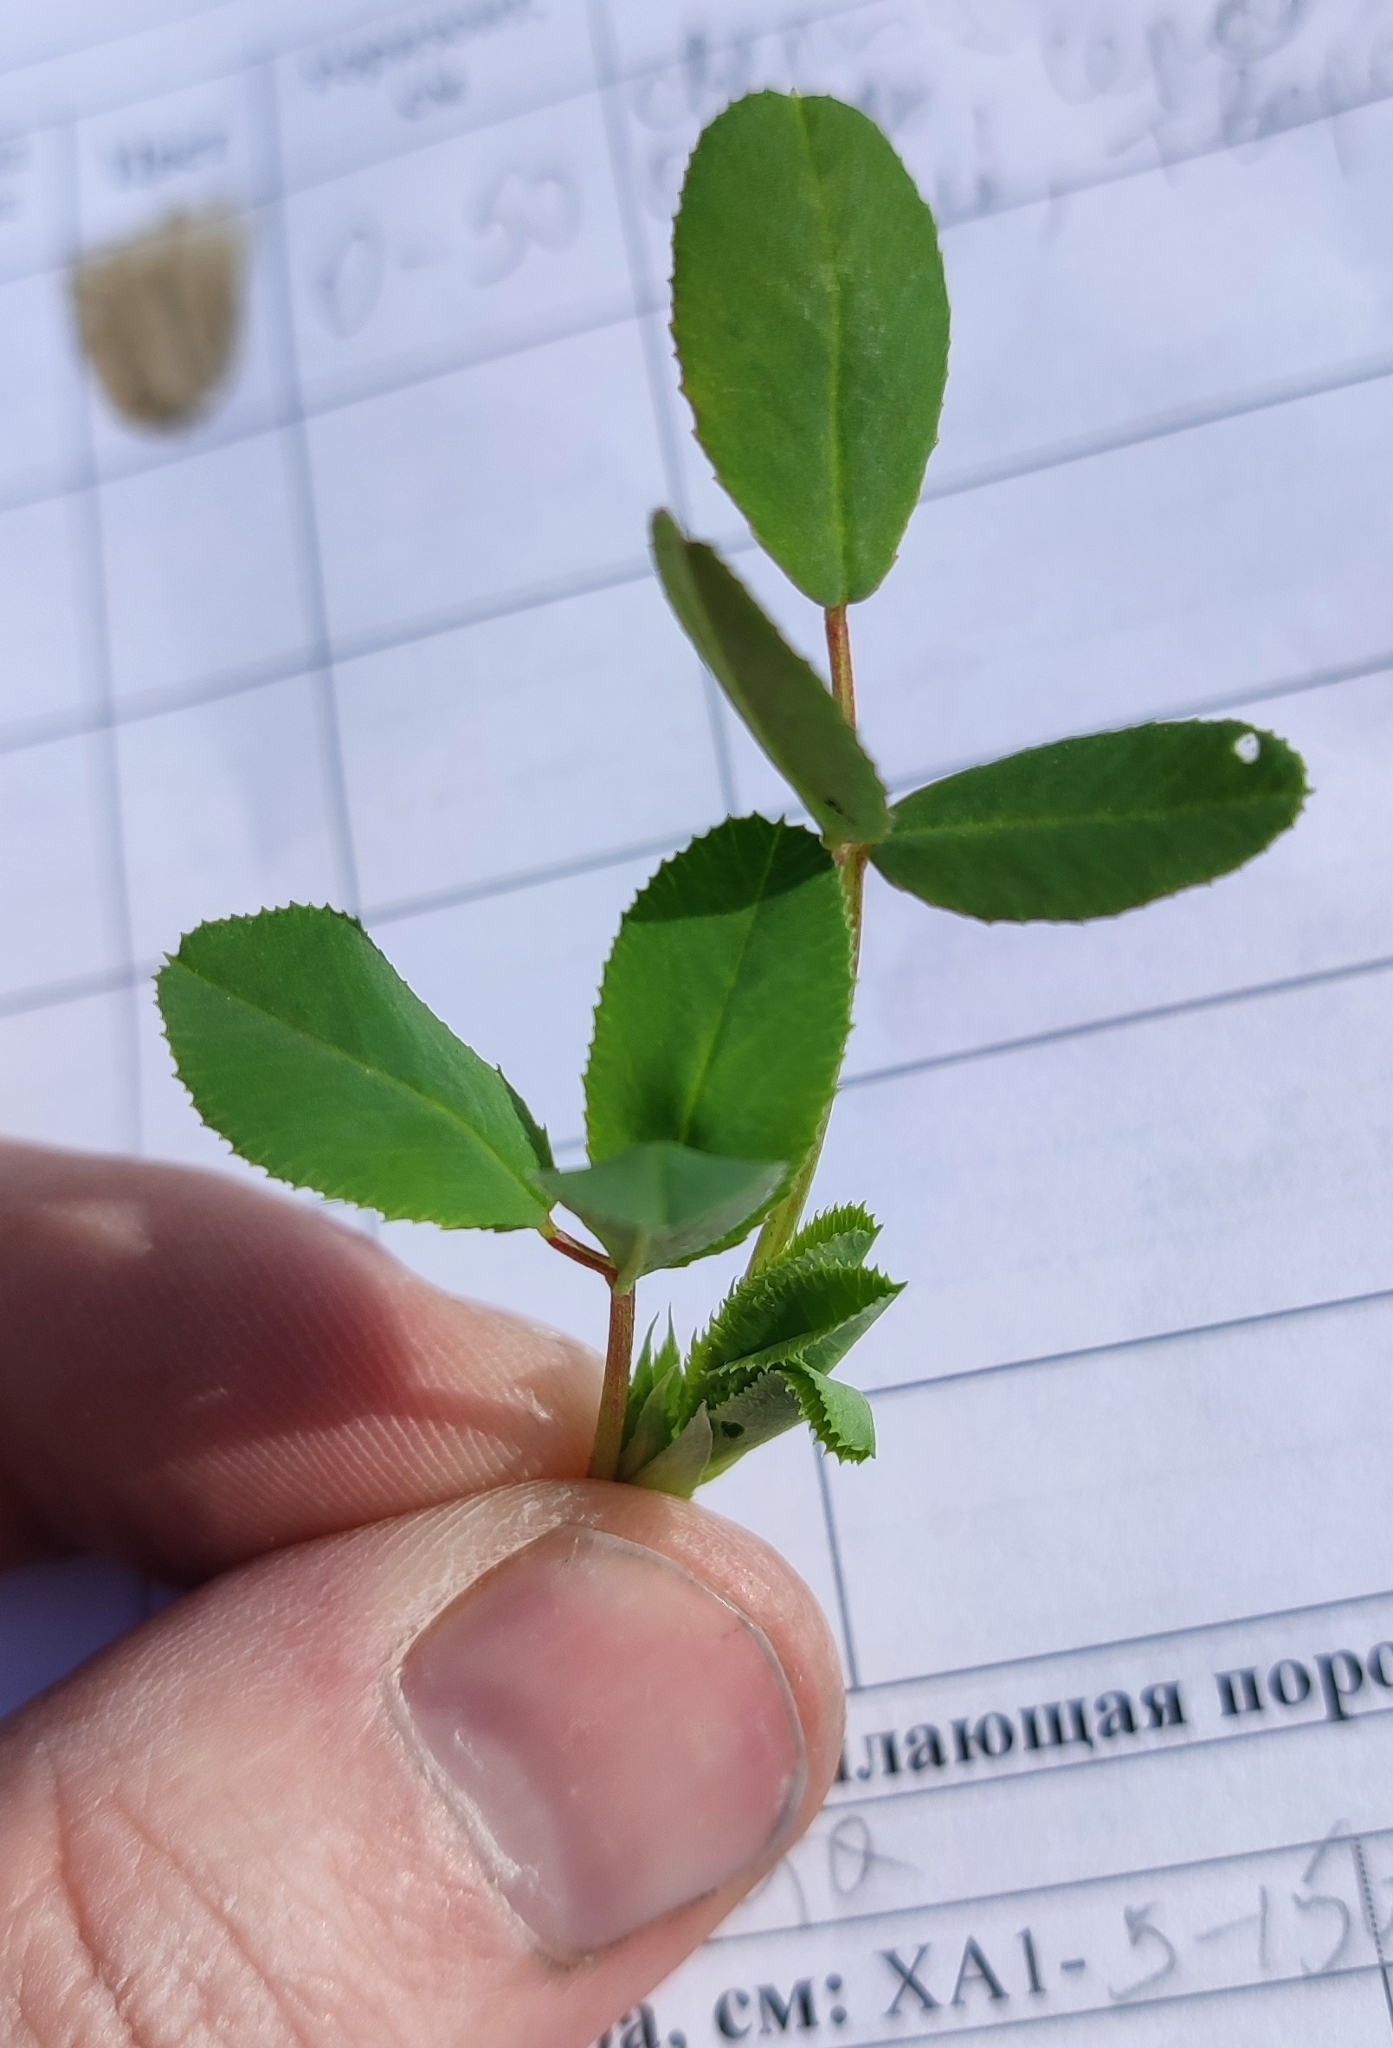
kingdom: Plantae
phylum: Tracheophyta
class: Magnoliopsida
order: Fabales
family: Fabaceae
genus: Melilotus
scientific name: Melilotus dentatus
